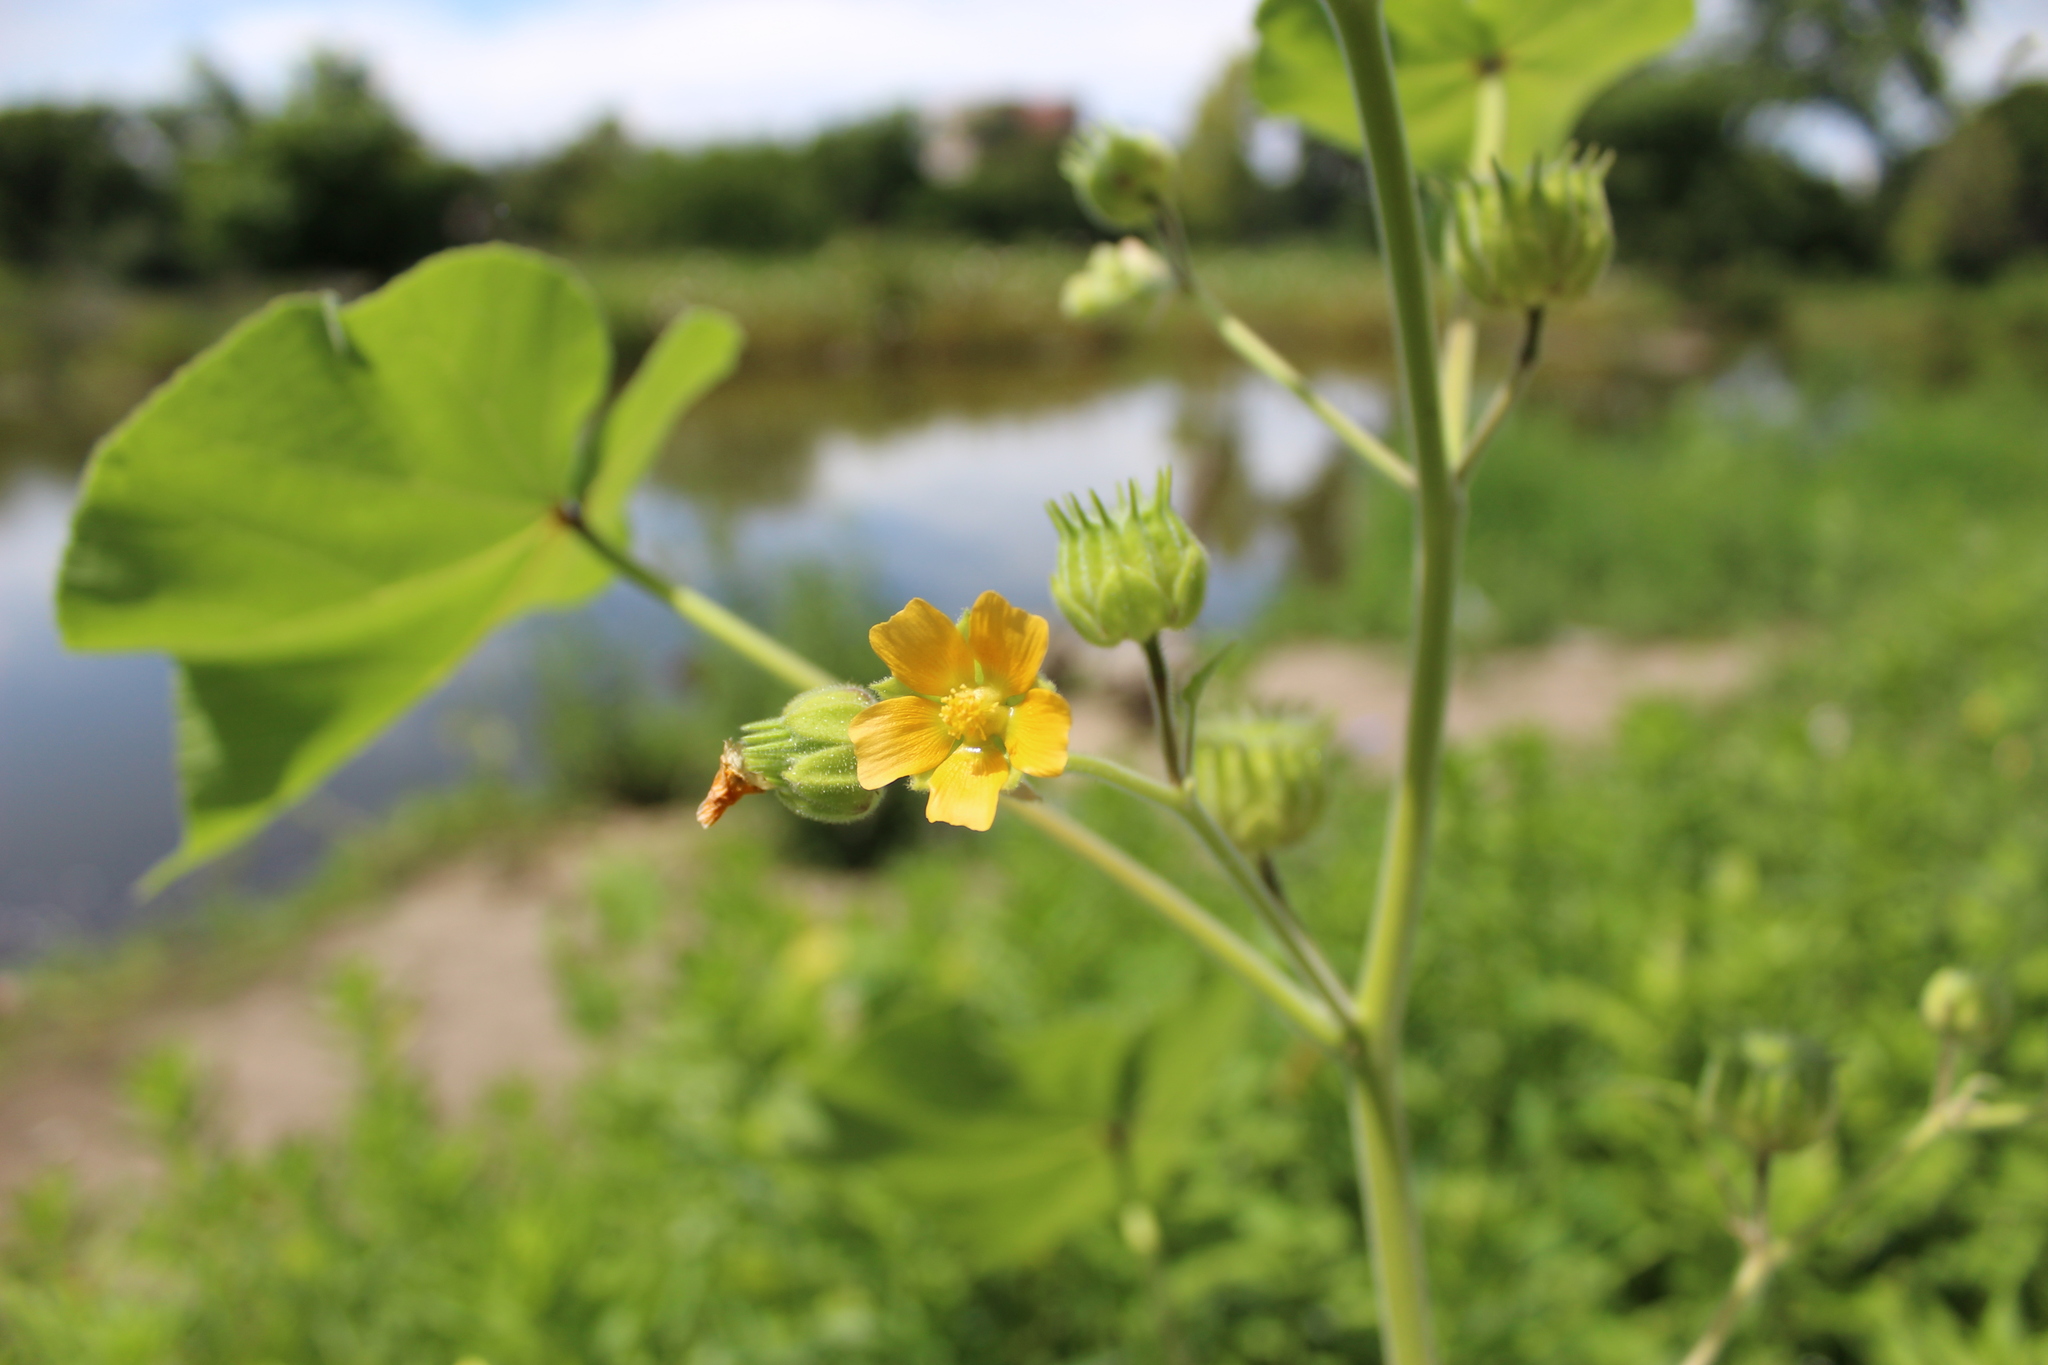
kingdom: Plantae
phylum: Tracheophyta
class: Magnoliopsida
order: Malvales
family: Malvaceae
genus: Abutilon
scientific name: Abutilon theophrasti
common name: Velvetleaf
